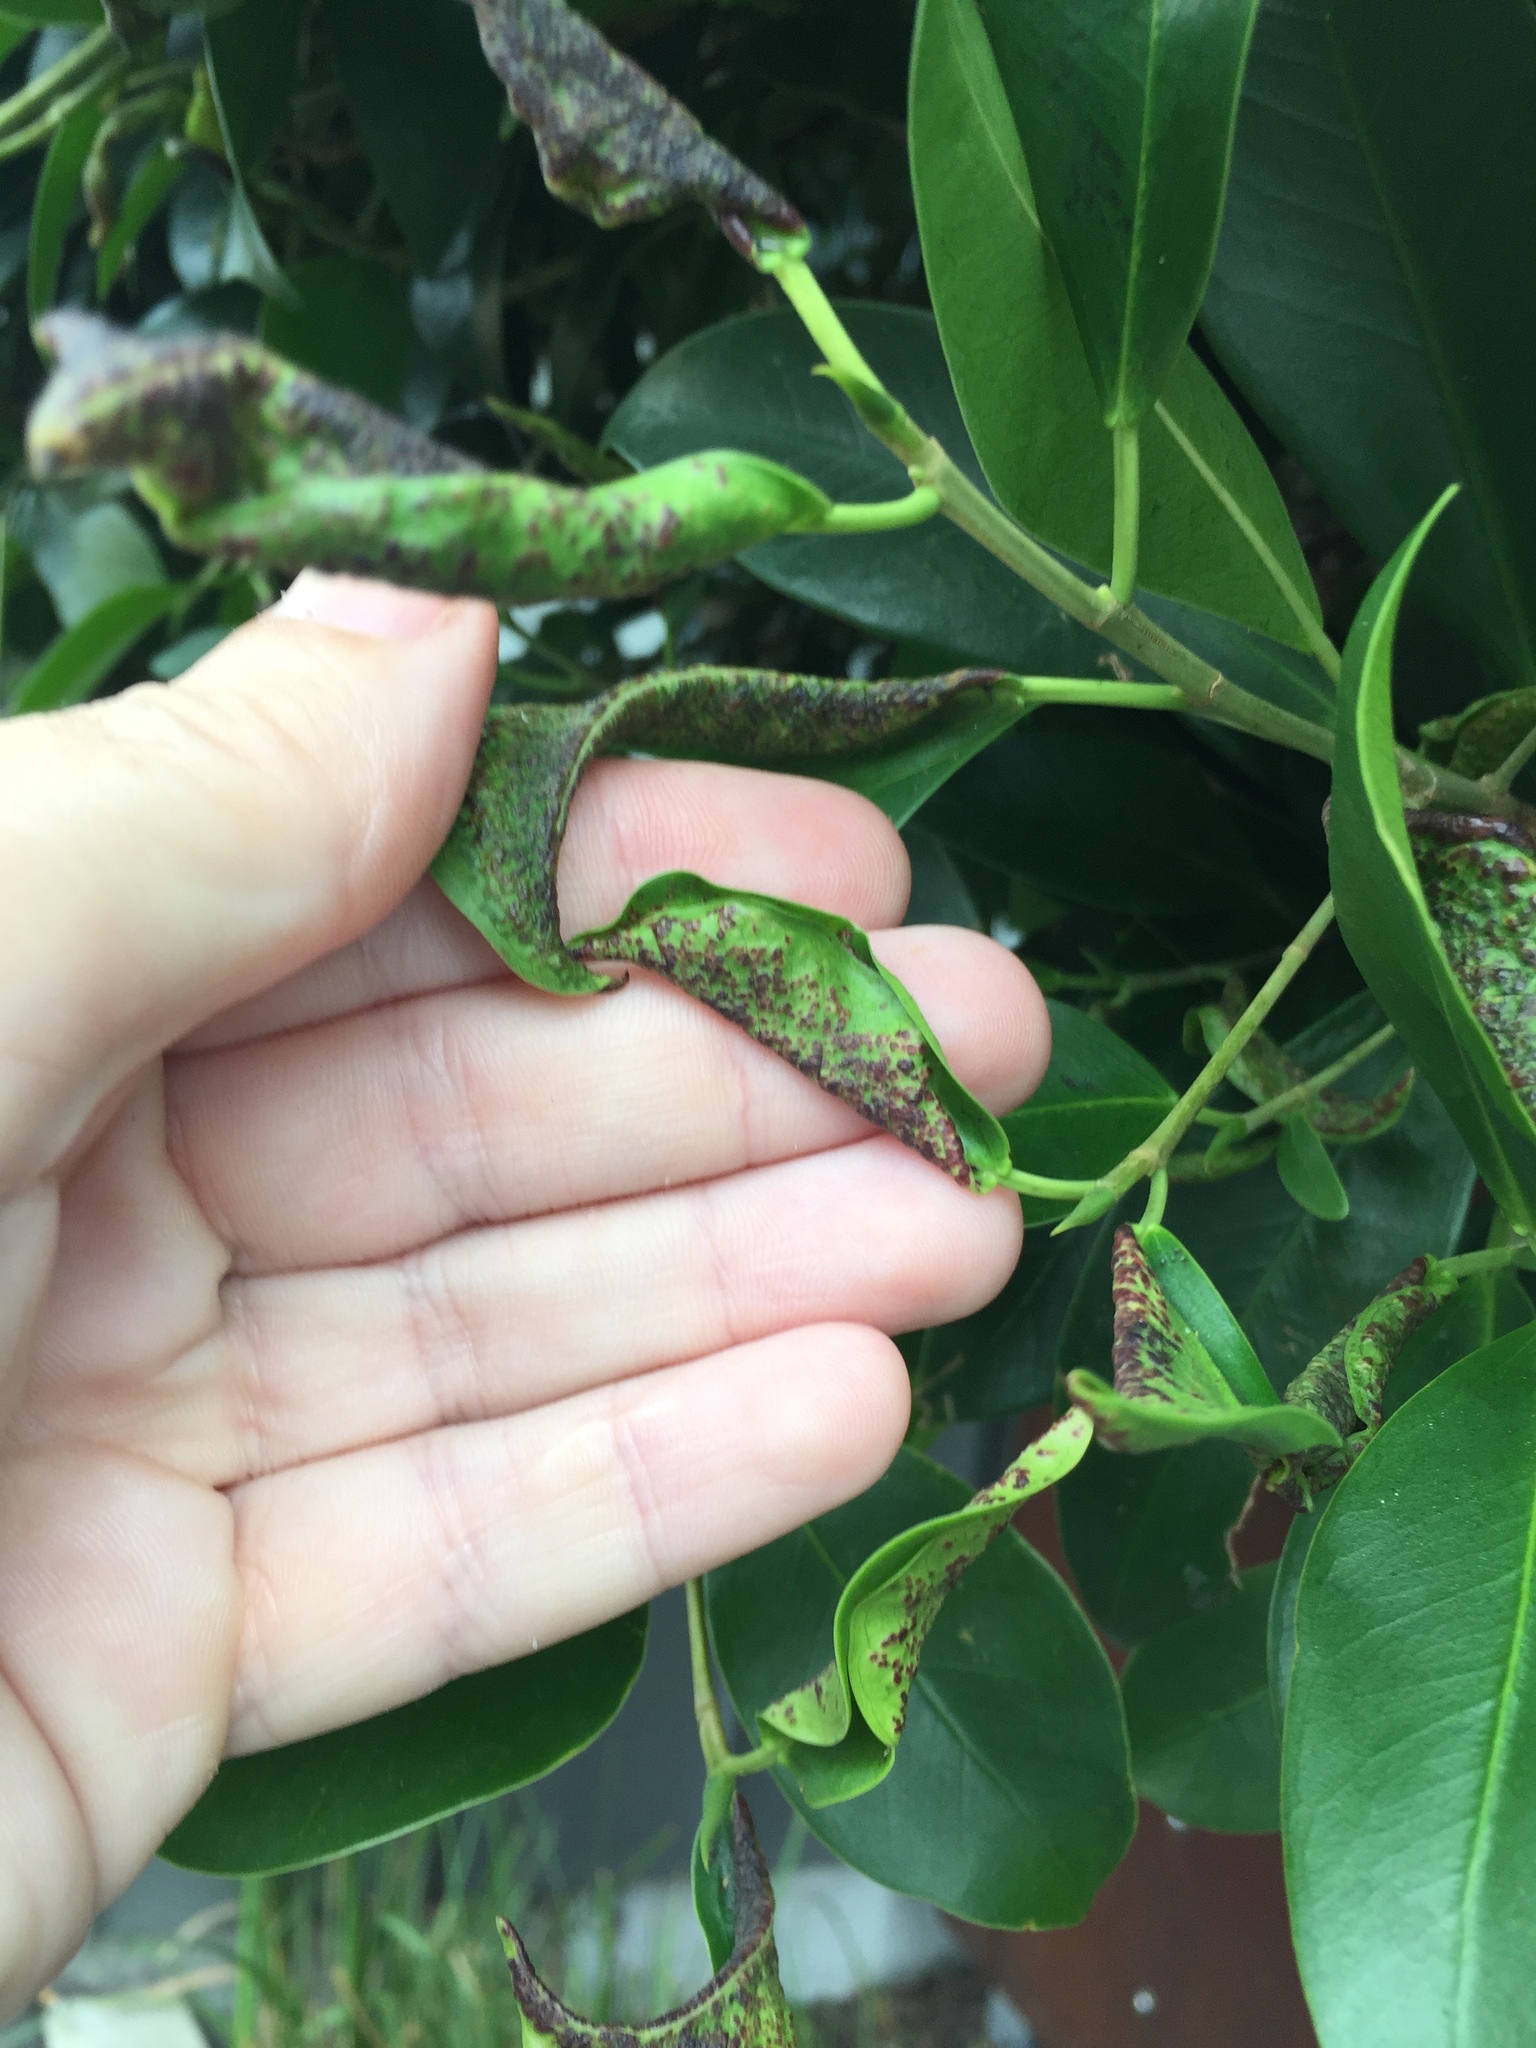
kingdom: Animalia
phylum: Arthropoda
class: Insecta
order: Thysanoptera
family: Phlaeothripidae
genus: Gynaikothrips
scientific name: Gynaikothrips ficorum
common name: Cuban laurel thrips
